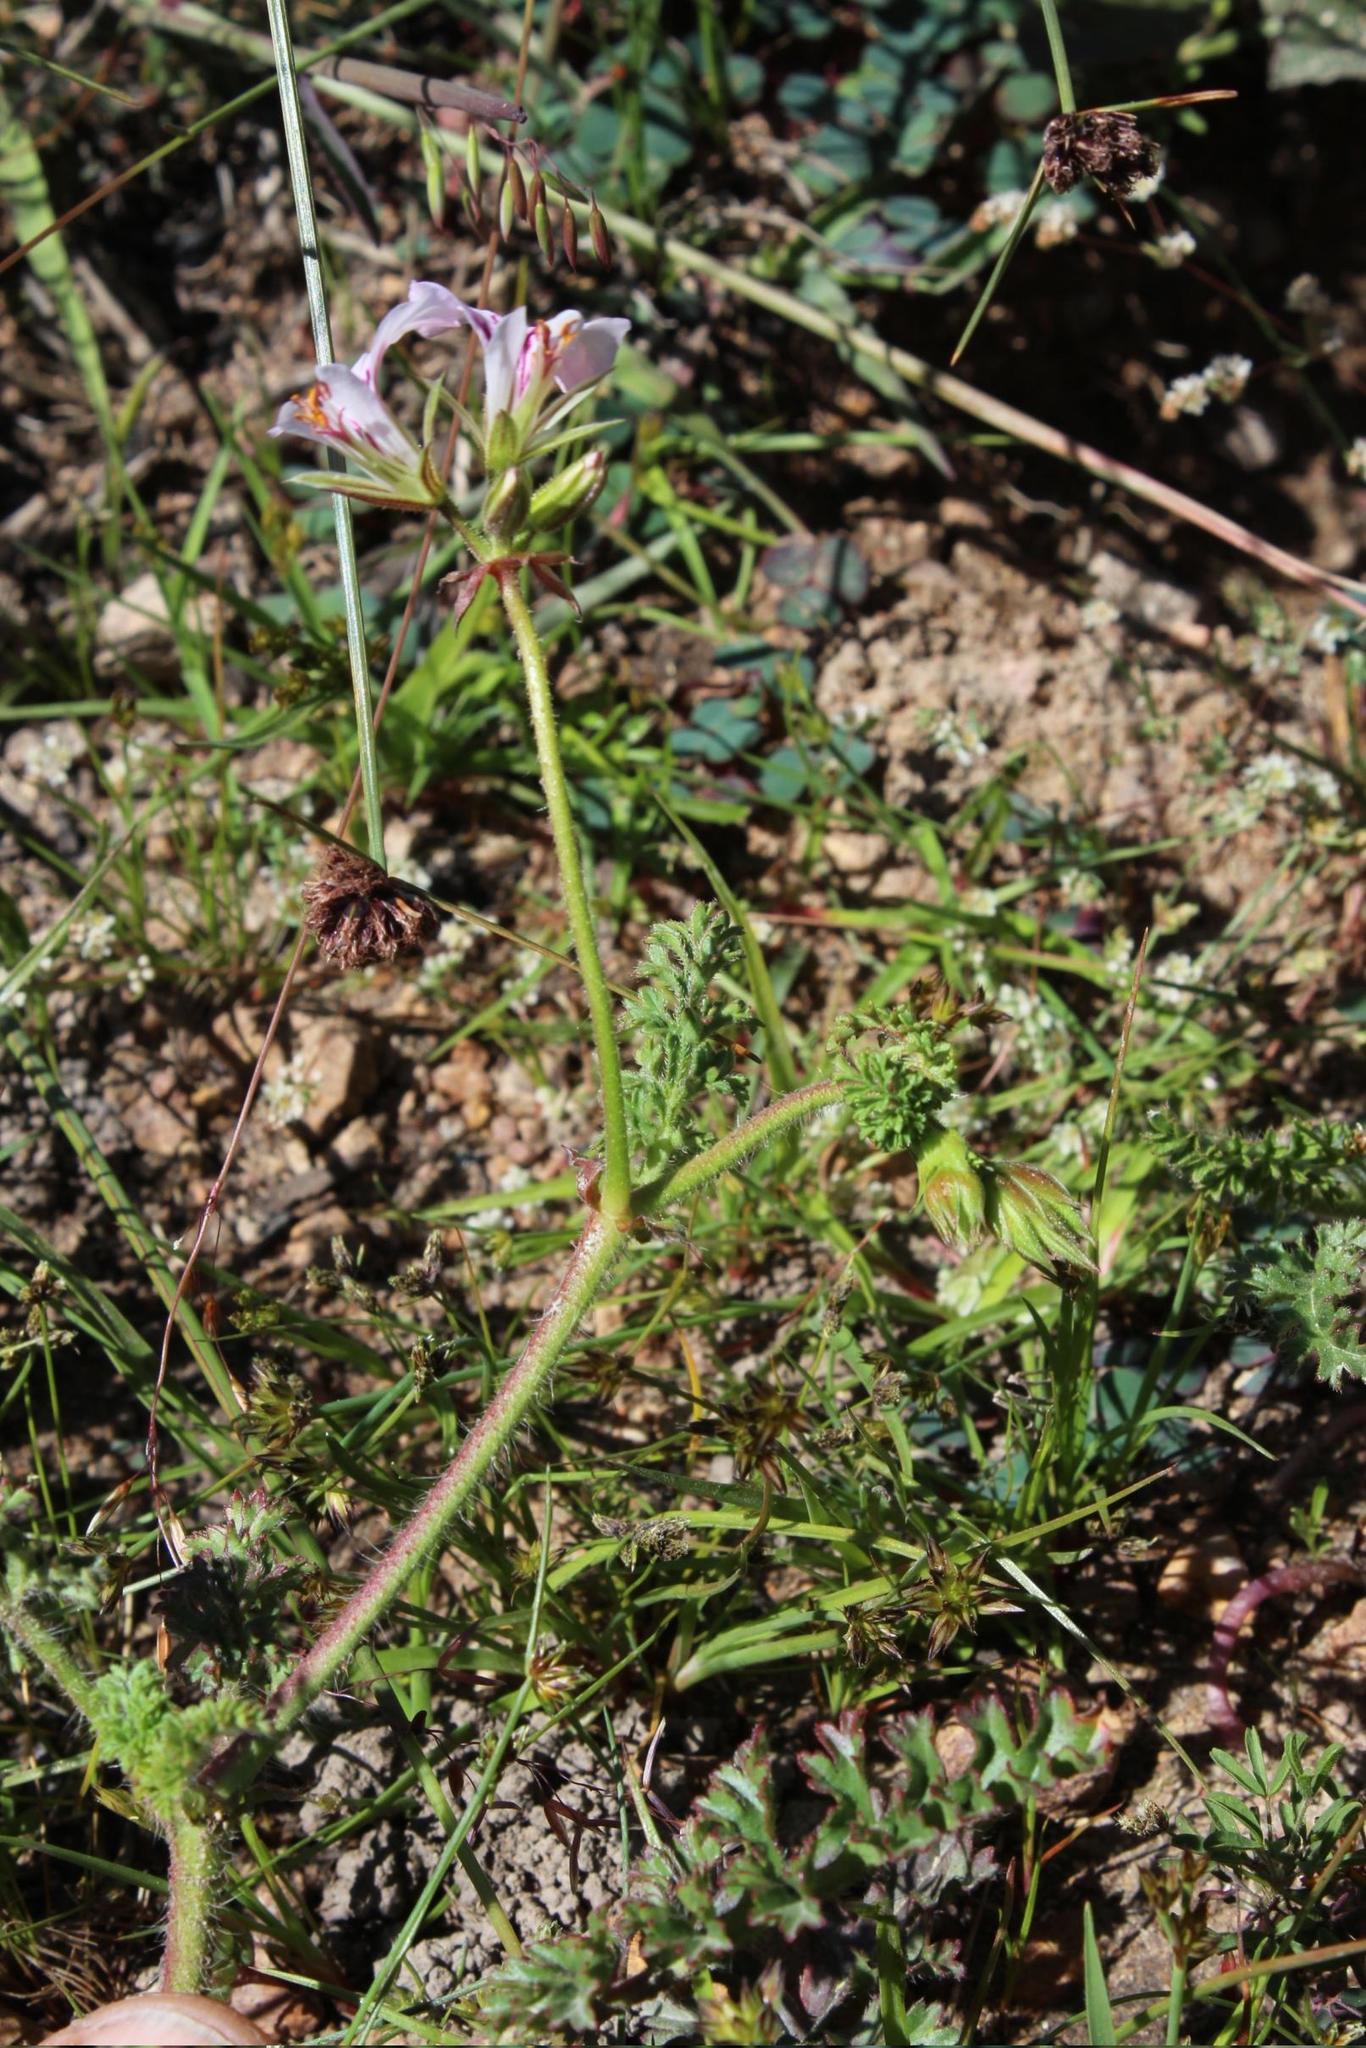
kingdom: Plantae
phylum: Tracheophyta
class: Magnoliopsida
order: Geraniales
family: Geraniaceae
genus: Pelargonium
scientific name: Pelargonium myrrhifolium
